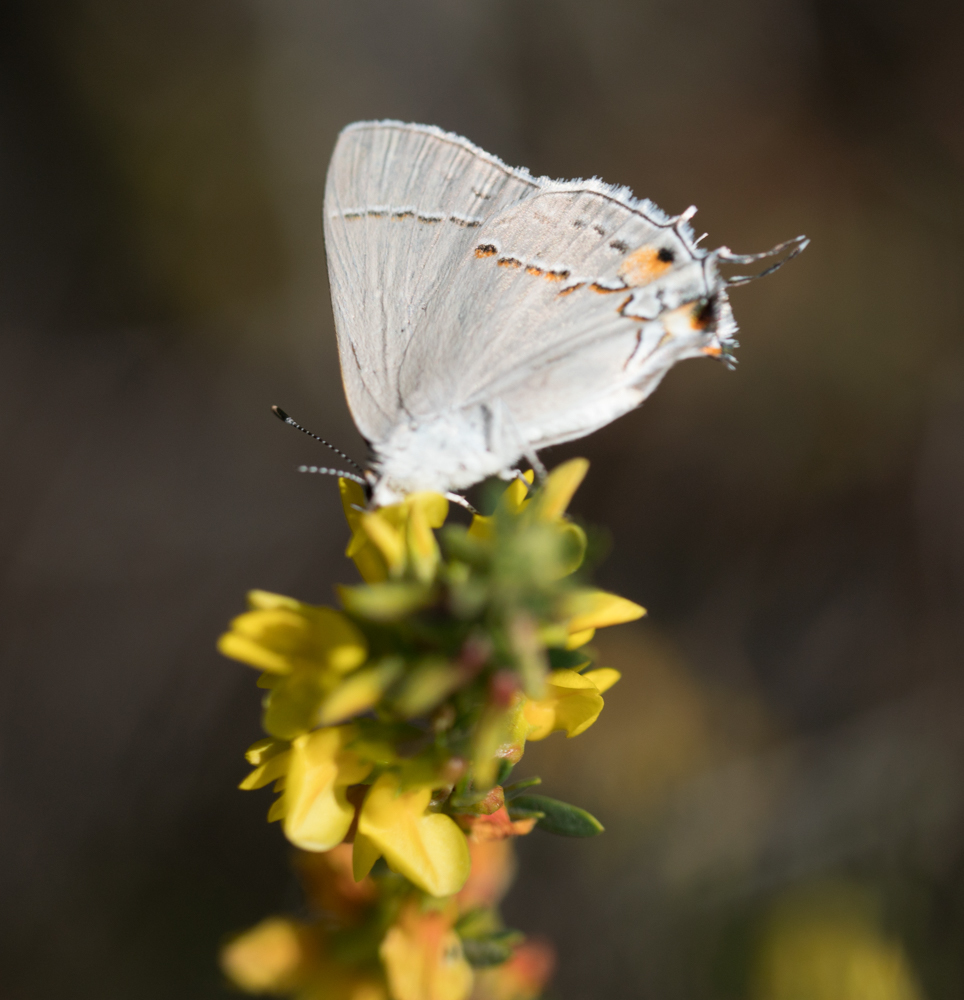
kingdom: Animalia
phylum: Arthropoda
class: Insecta
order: Lepidoptera
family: Lycaenidae
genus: Strymon
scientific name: Strymon melinus
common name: Gray hairstreak
